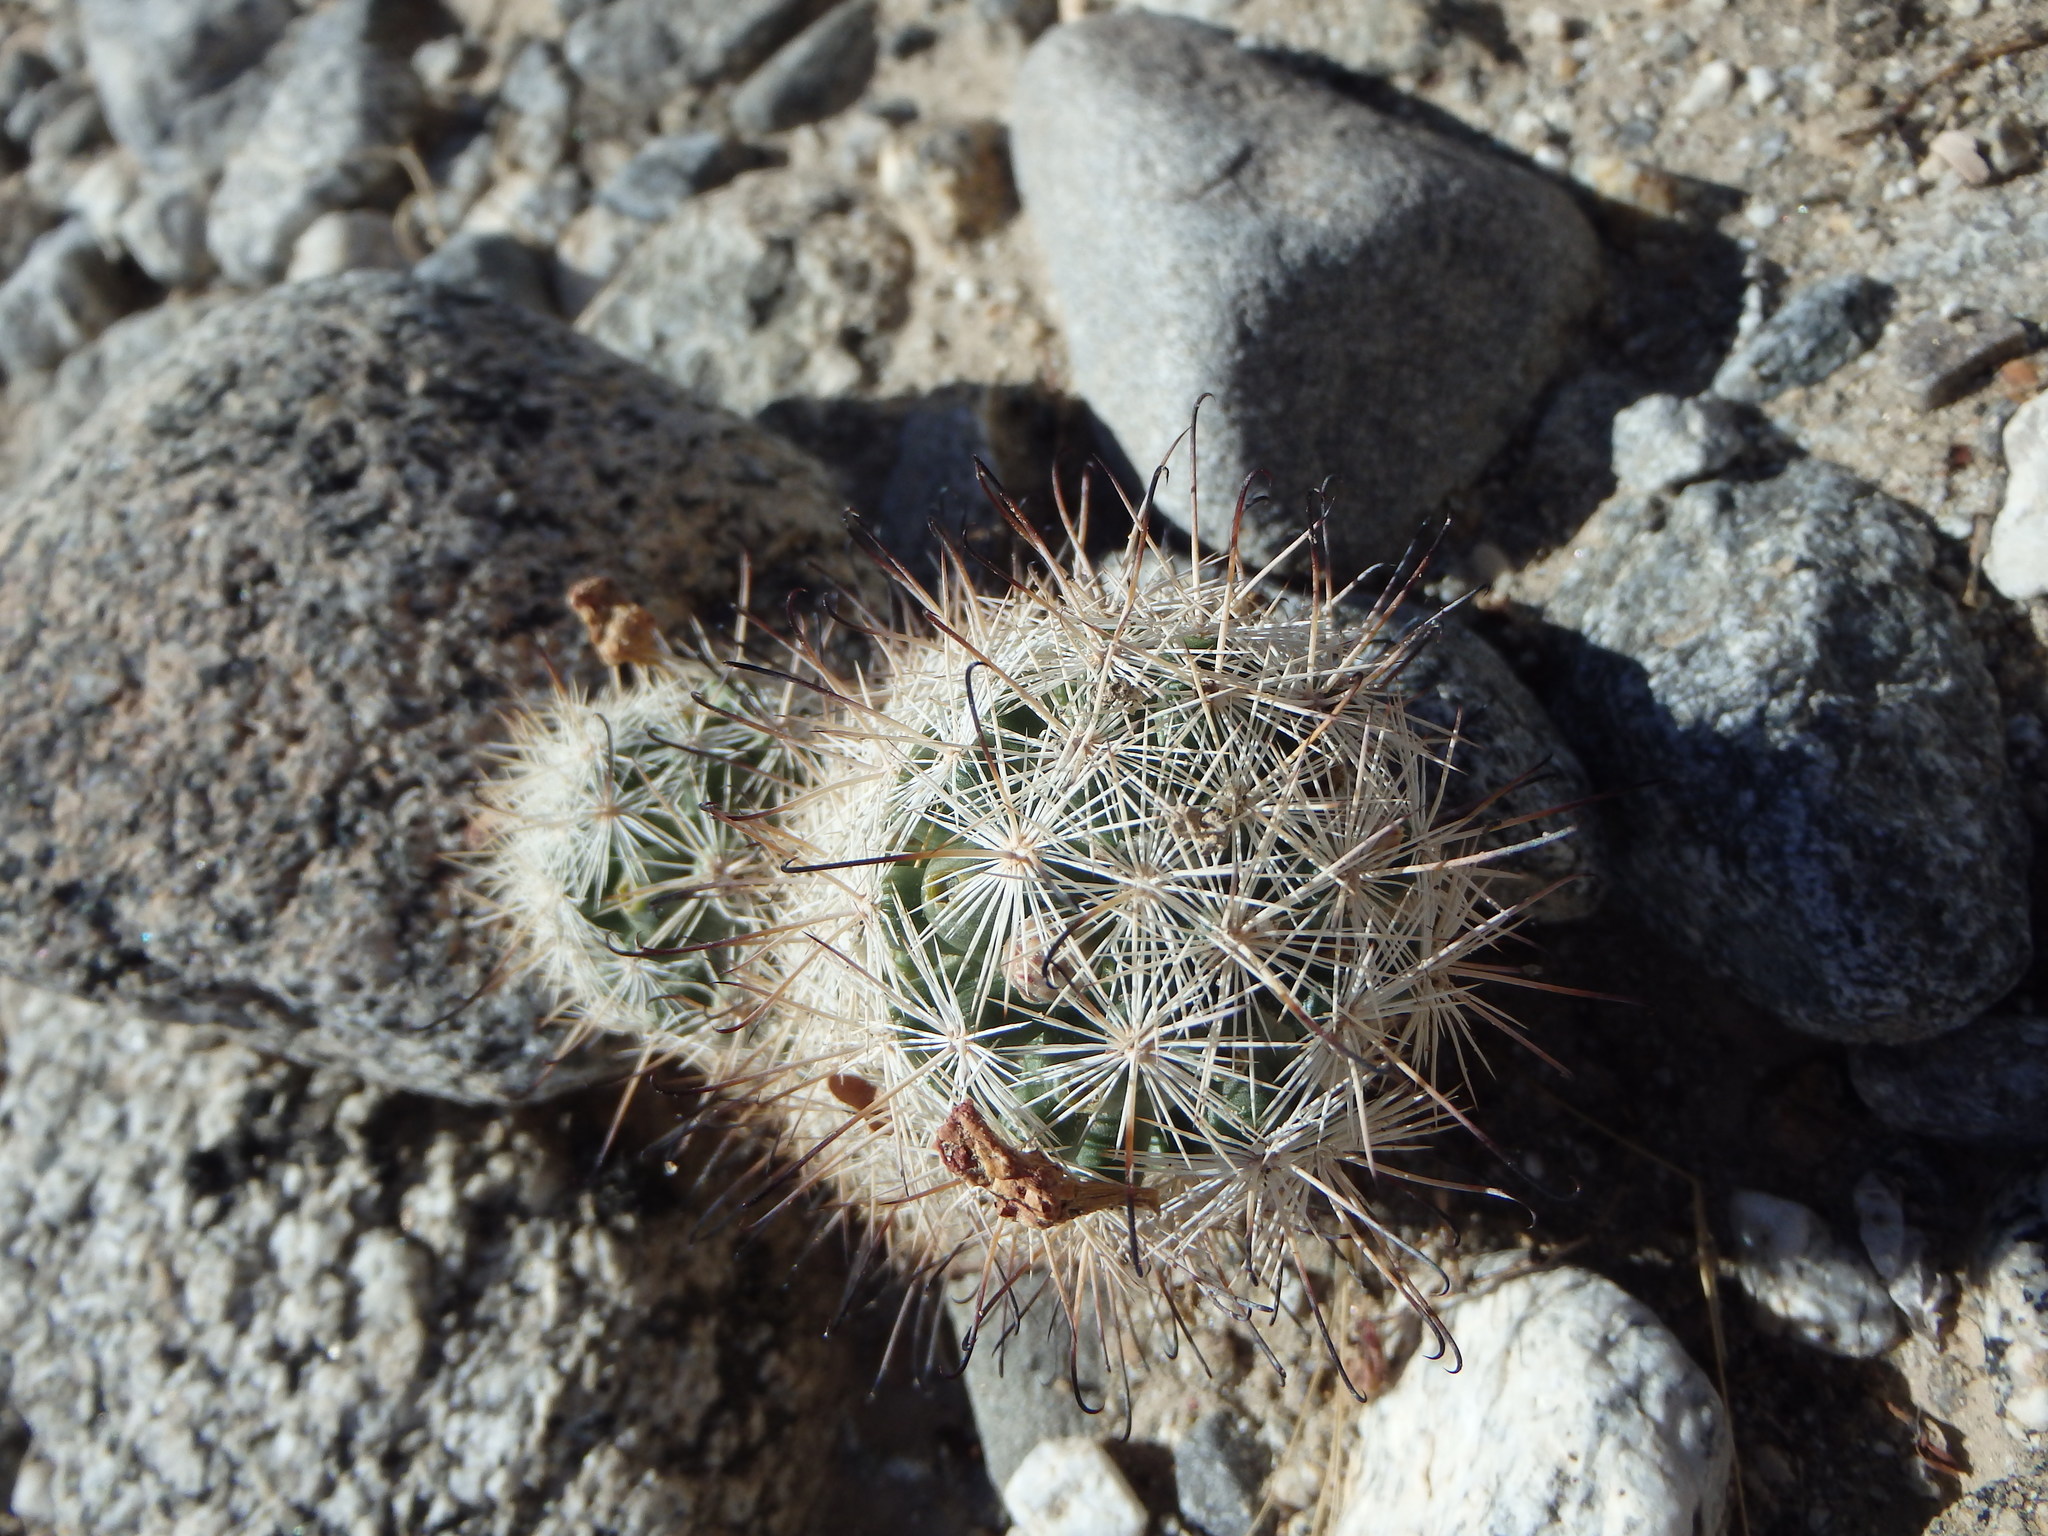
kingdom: Plantae
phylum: Tracheophyta
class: Magnoliopsida
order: Caryophyllales
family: Cactaceae
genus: Cochemiea
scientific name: Cochemiea tetrancistra
